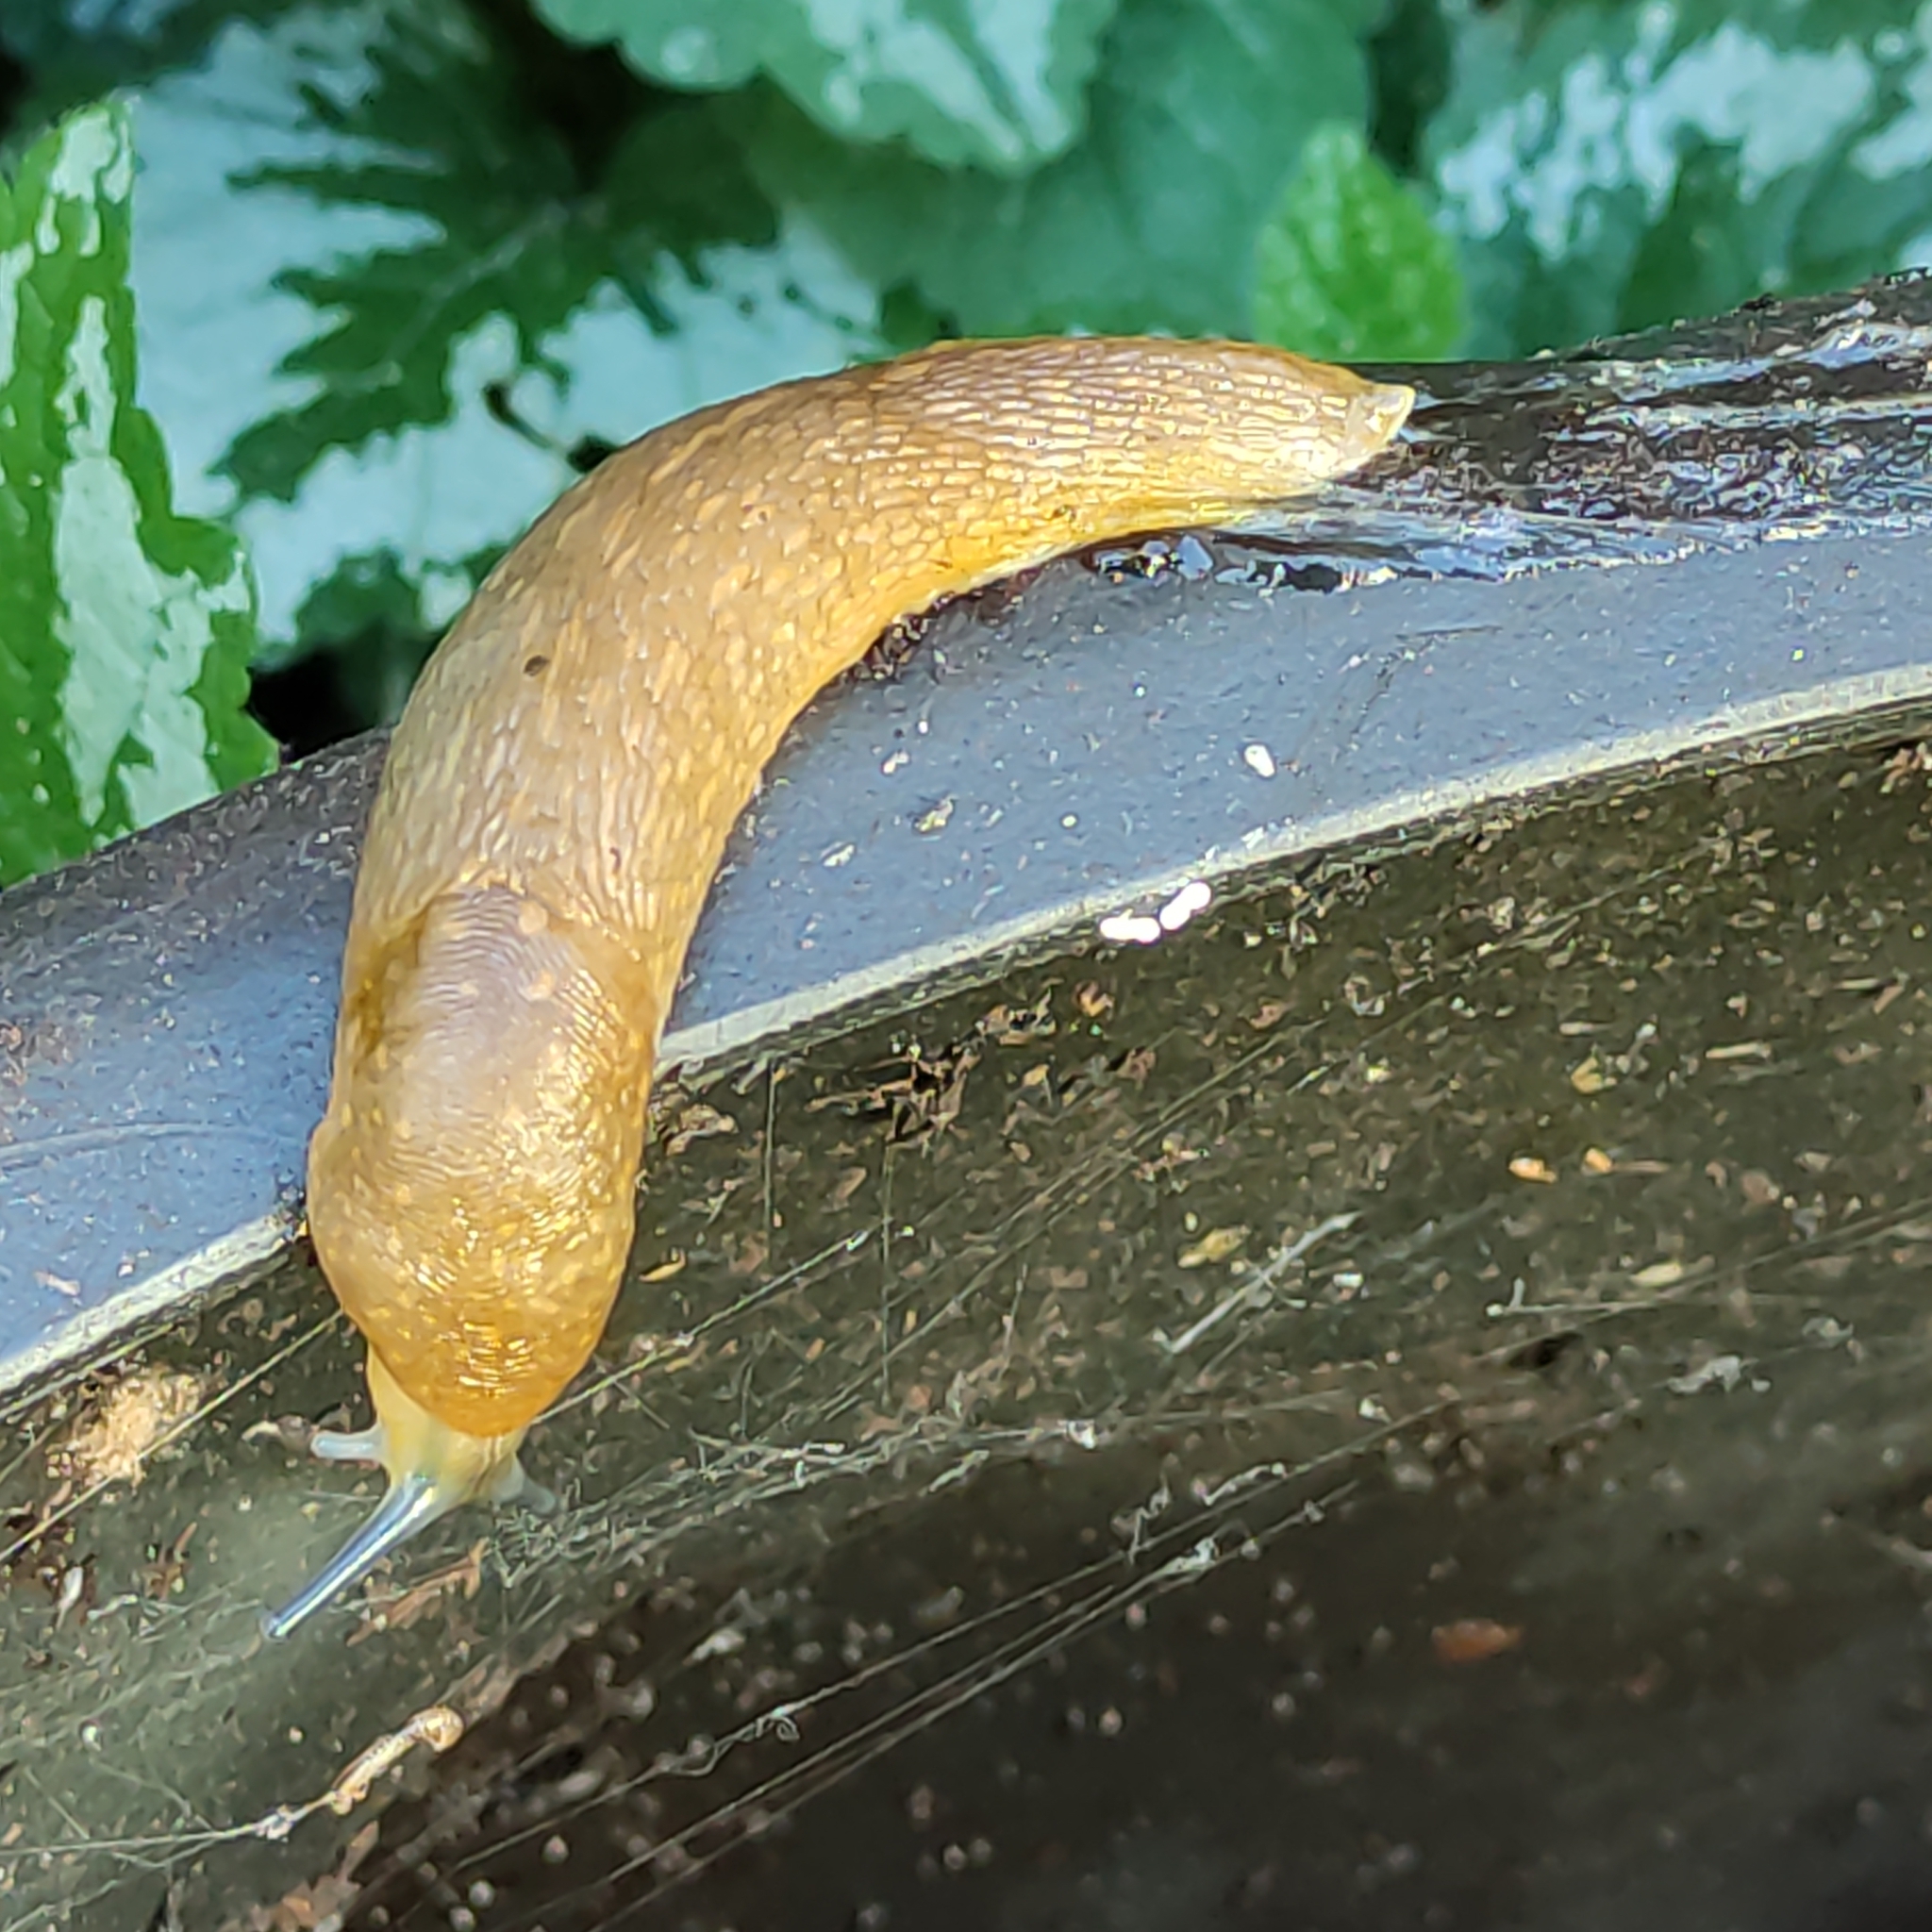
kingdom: Animalia
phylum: Mollusca
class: Gastropoda
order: Stylommatophora
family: Limacidae
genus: Limacus
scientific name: Limacus flavus
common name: Yellow gardenslug
